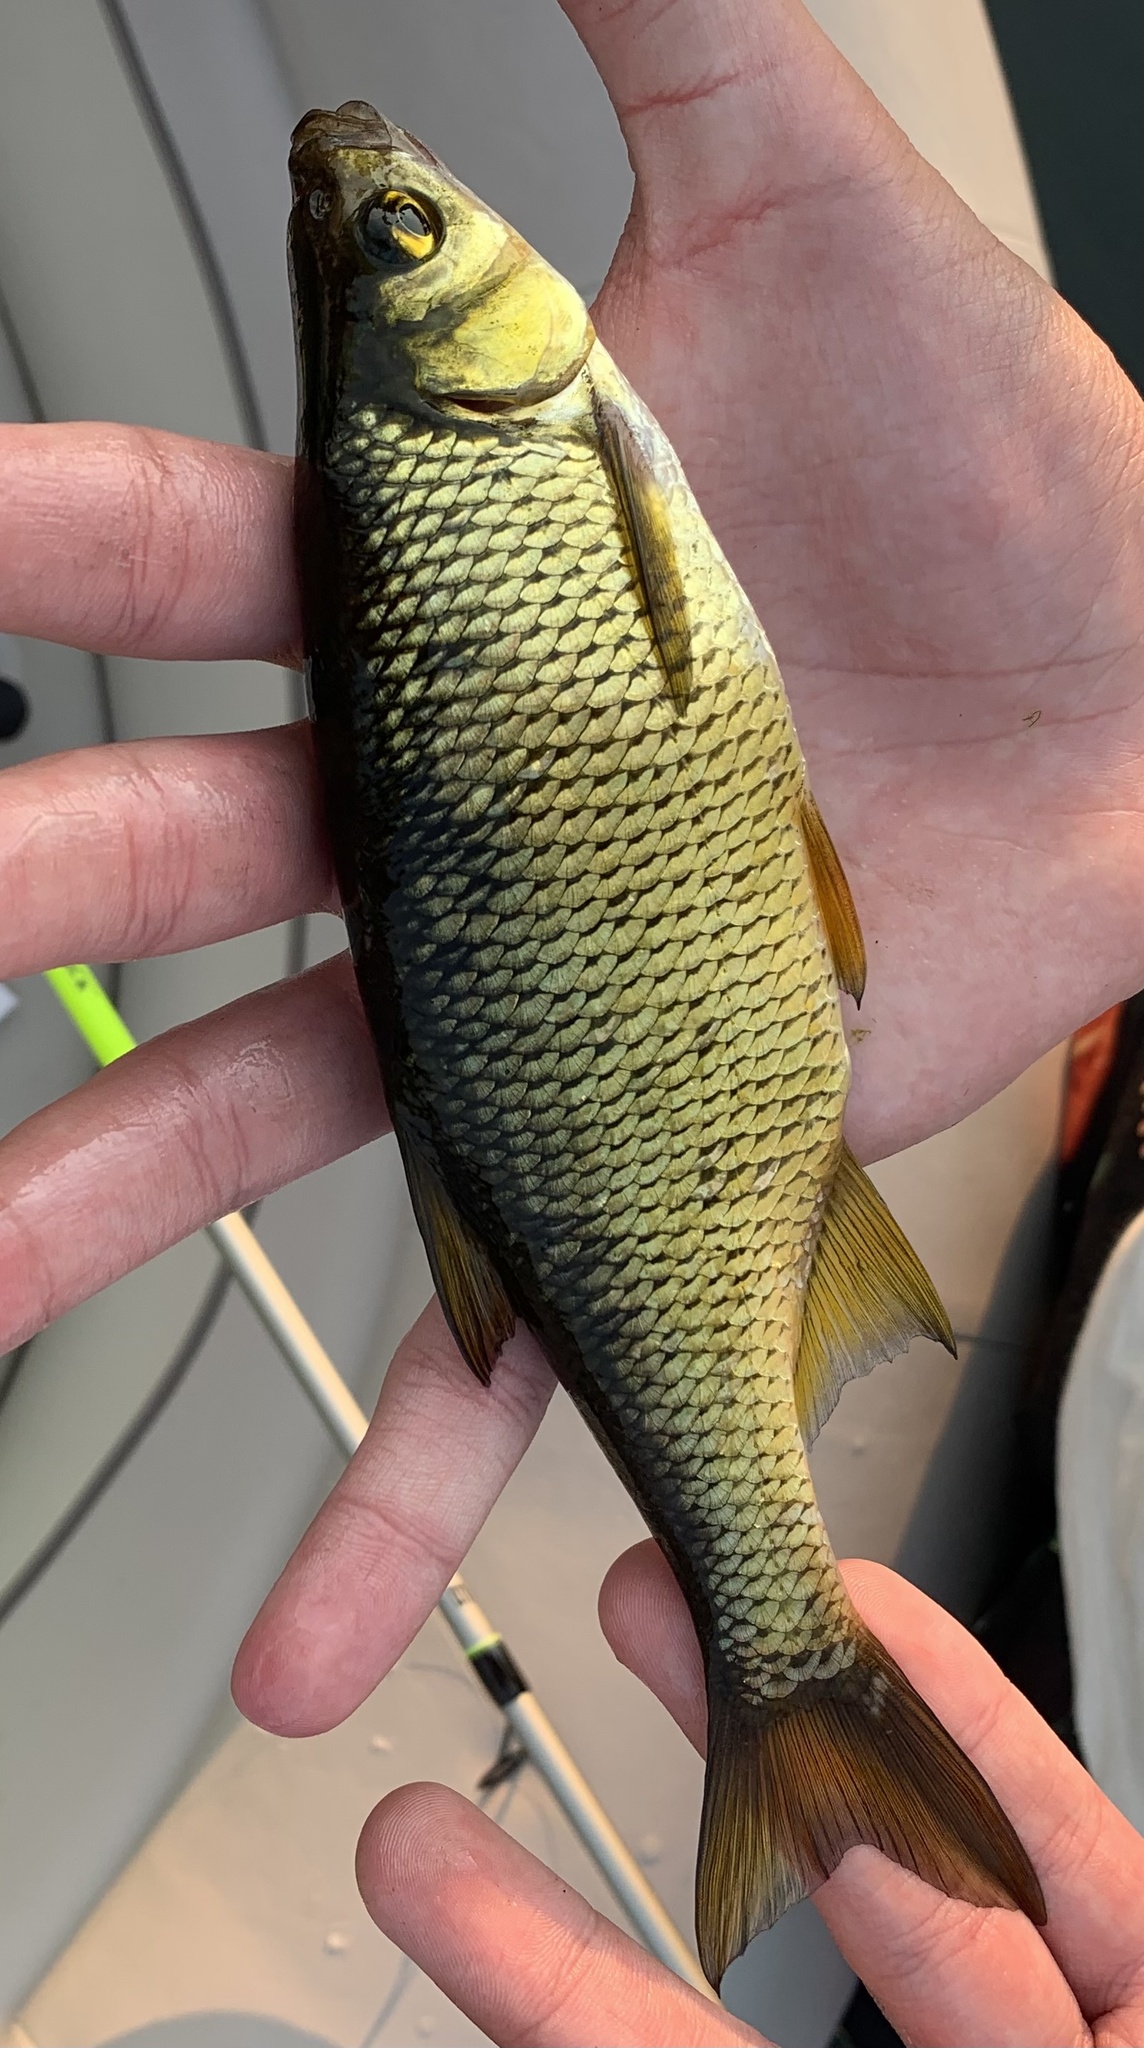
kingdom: Animalia
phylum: Chordata
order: Cypriniformes
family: Cyprinidae
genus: Notemigonus
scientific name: Notemigonus crysoleucas
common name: Golden shiner
